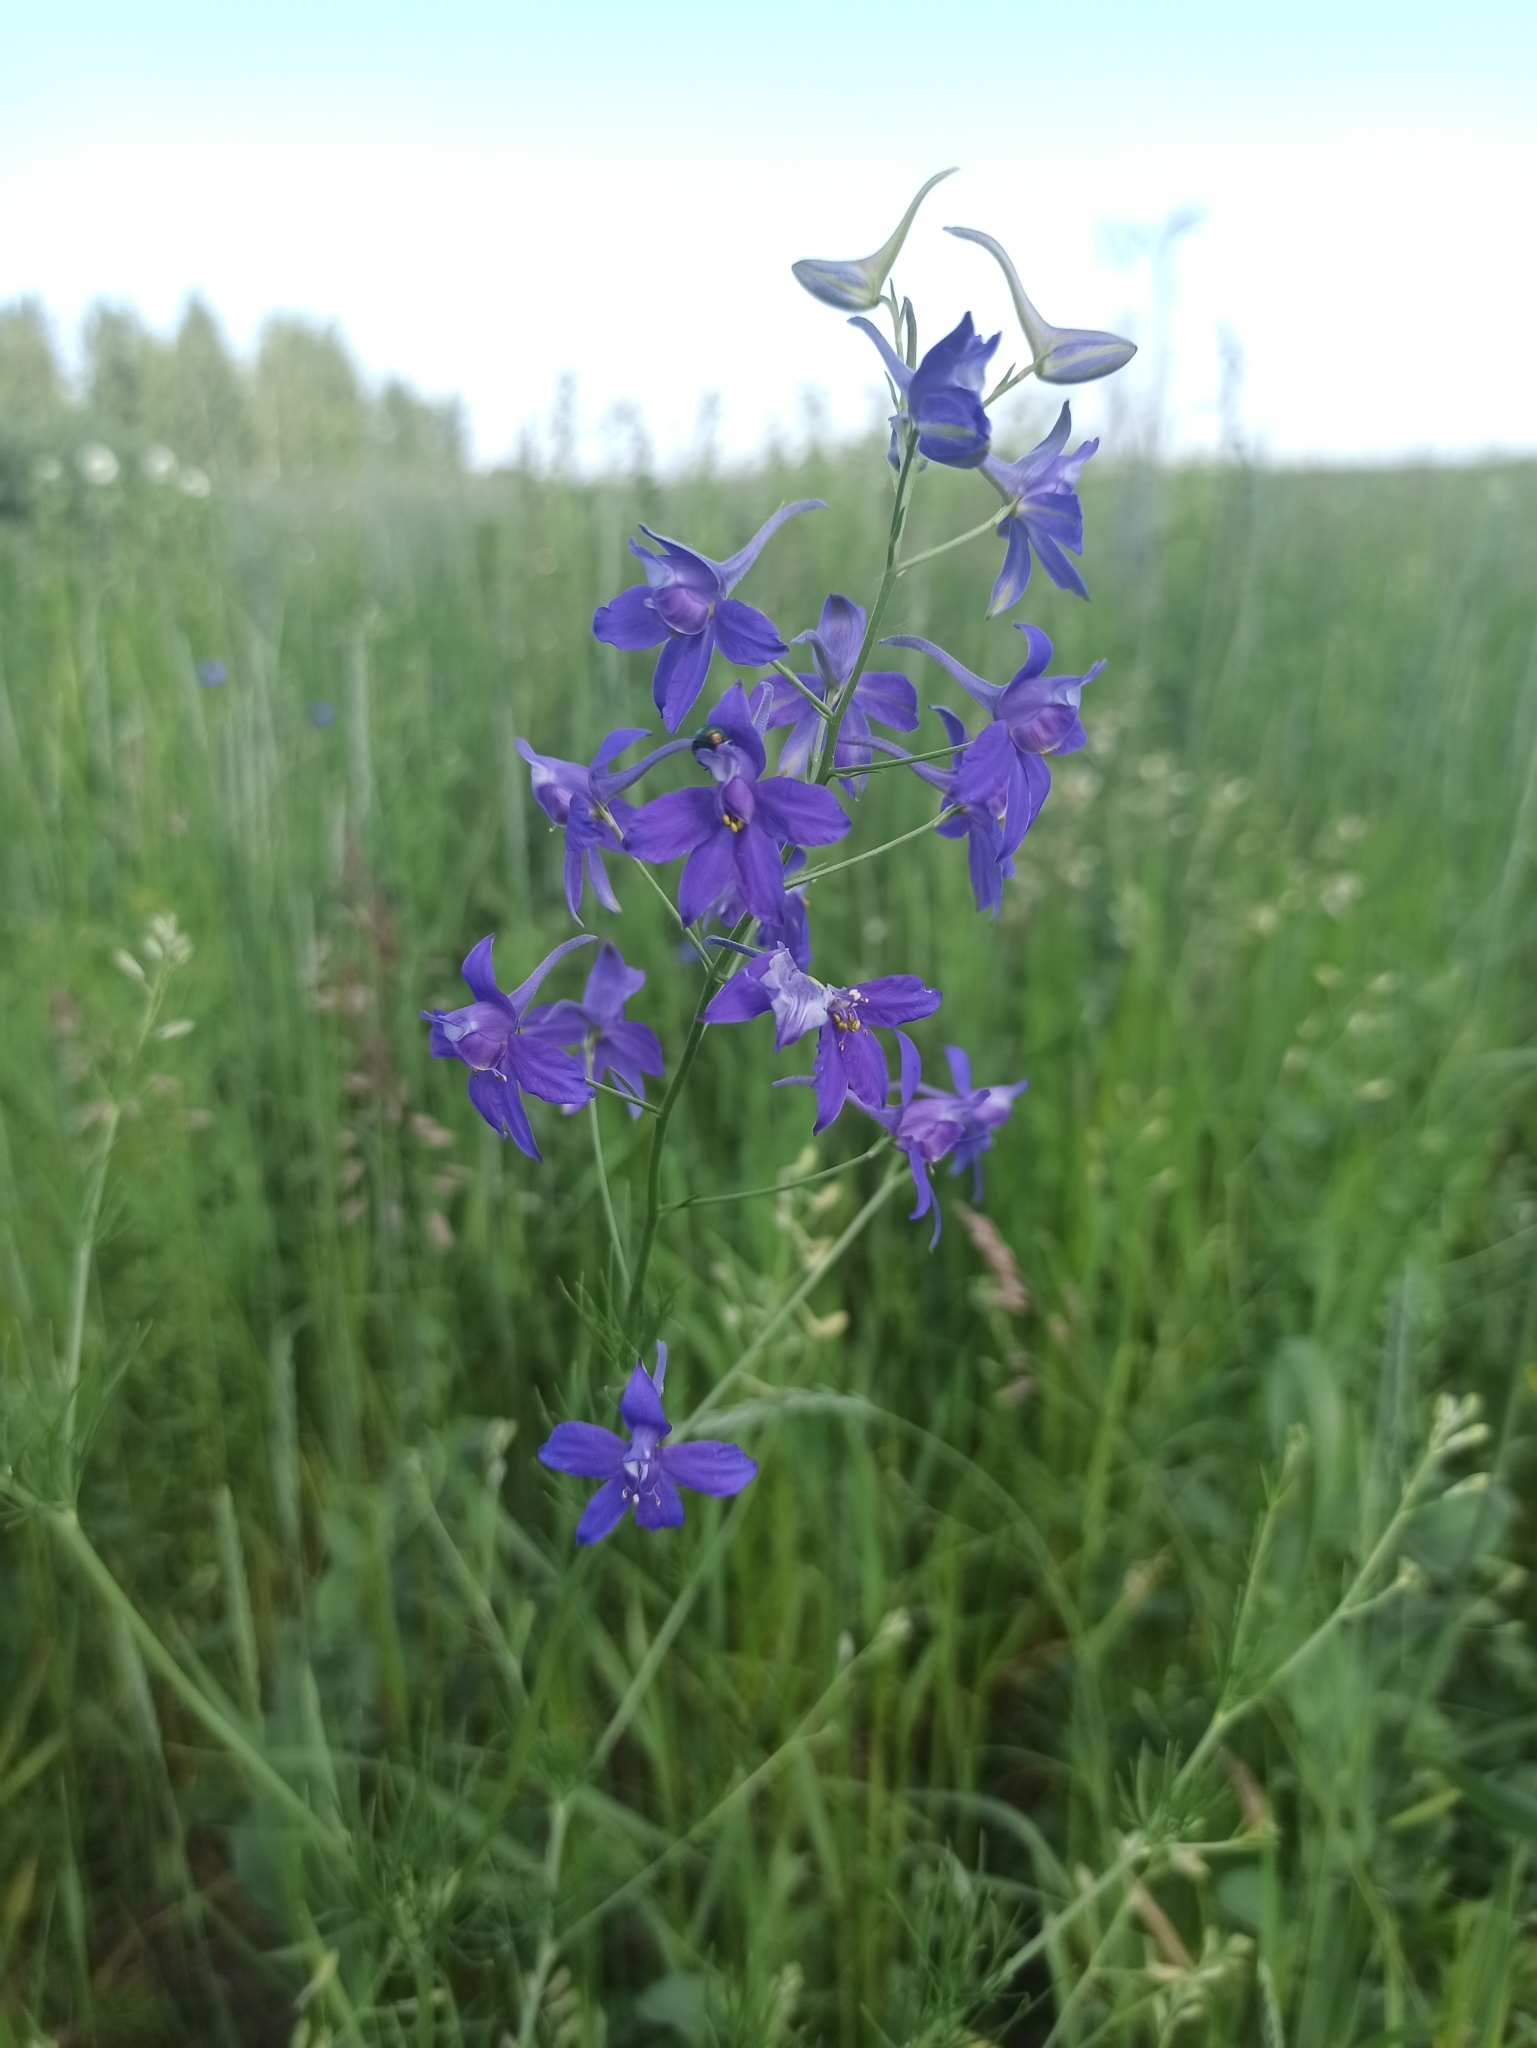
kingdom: Plantae
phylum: Tracheophyta
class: Magnoliopsida
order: Ranunculales
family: Ranunculaceae
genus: Delphinium
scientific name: Delphinium consolida
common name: Branching larkspur
